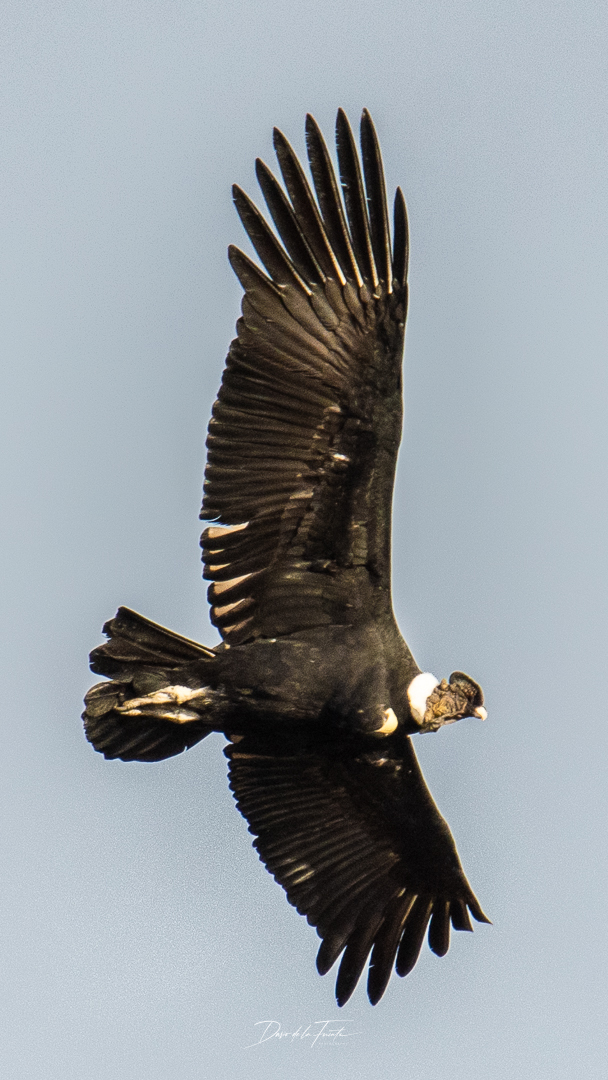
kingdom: Animalia
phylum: Chordata
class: Aves
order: Accipitriformes
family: Cathartidae
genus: Vultur
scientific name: Vultur gryphus
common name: Andean condor
